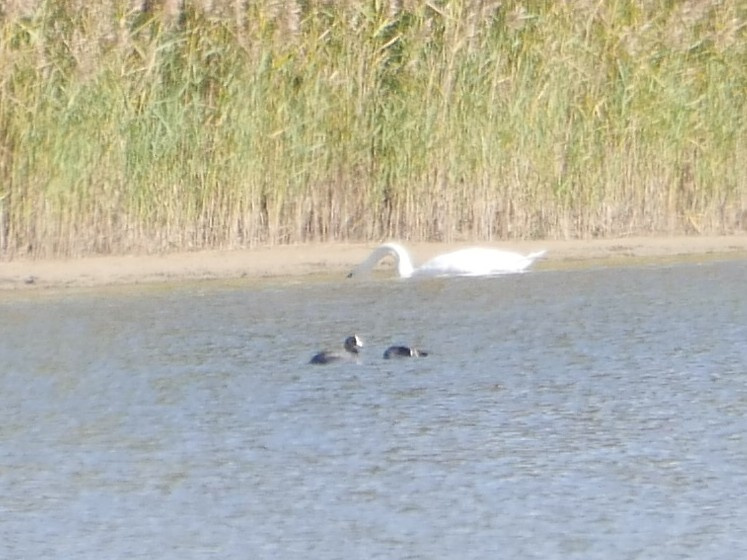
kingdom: Animalia
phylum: Chordata
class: Aves
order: Gruiformes
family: Rallidae
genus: Fulica
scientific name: Fulica atra
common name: Eurasian coot
